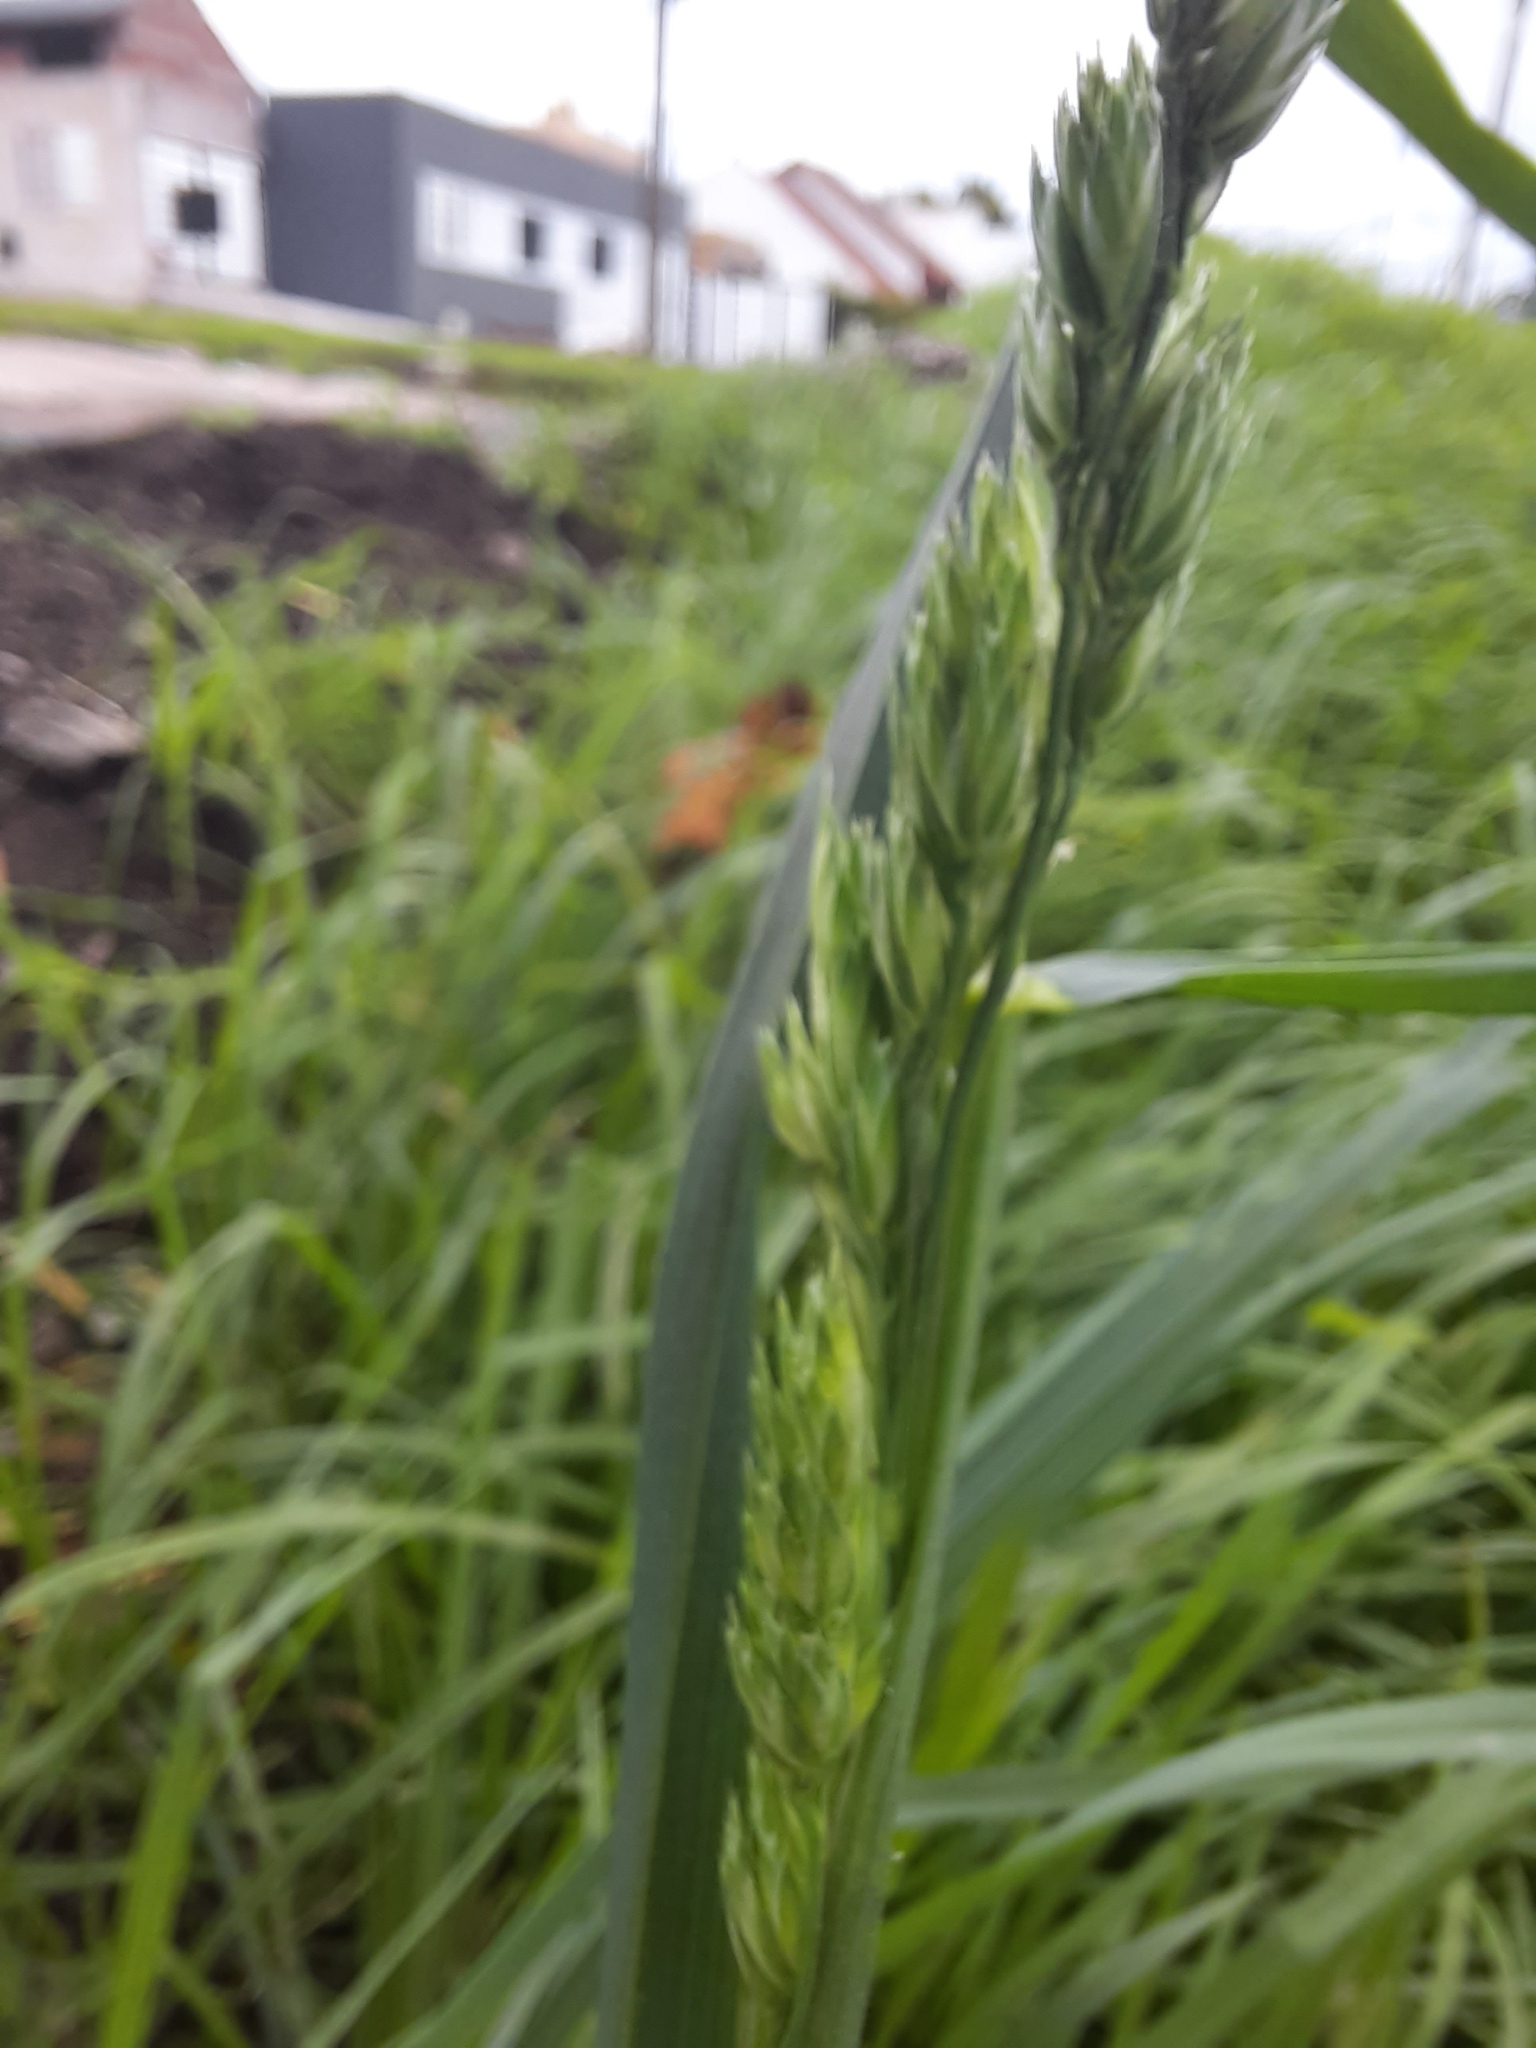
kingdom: Plantae
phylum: Tracheophyta
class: Liliopsida
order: Poales
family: Poaceae
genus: Dactylis
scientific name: Dactylis glomerata
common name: Orchardgrass
